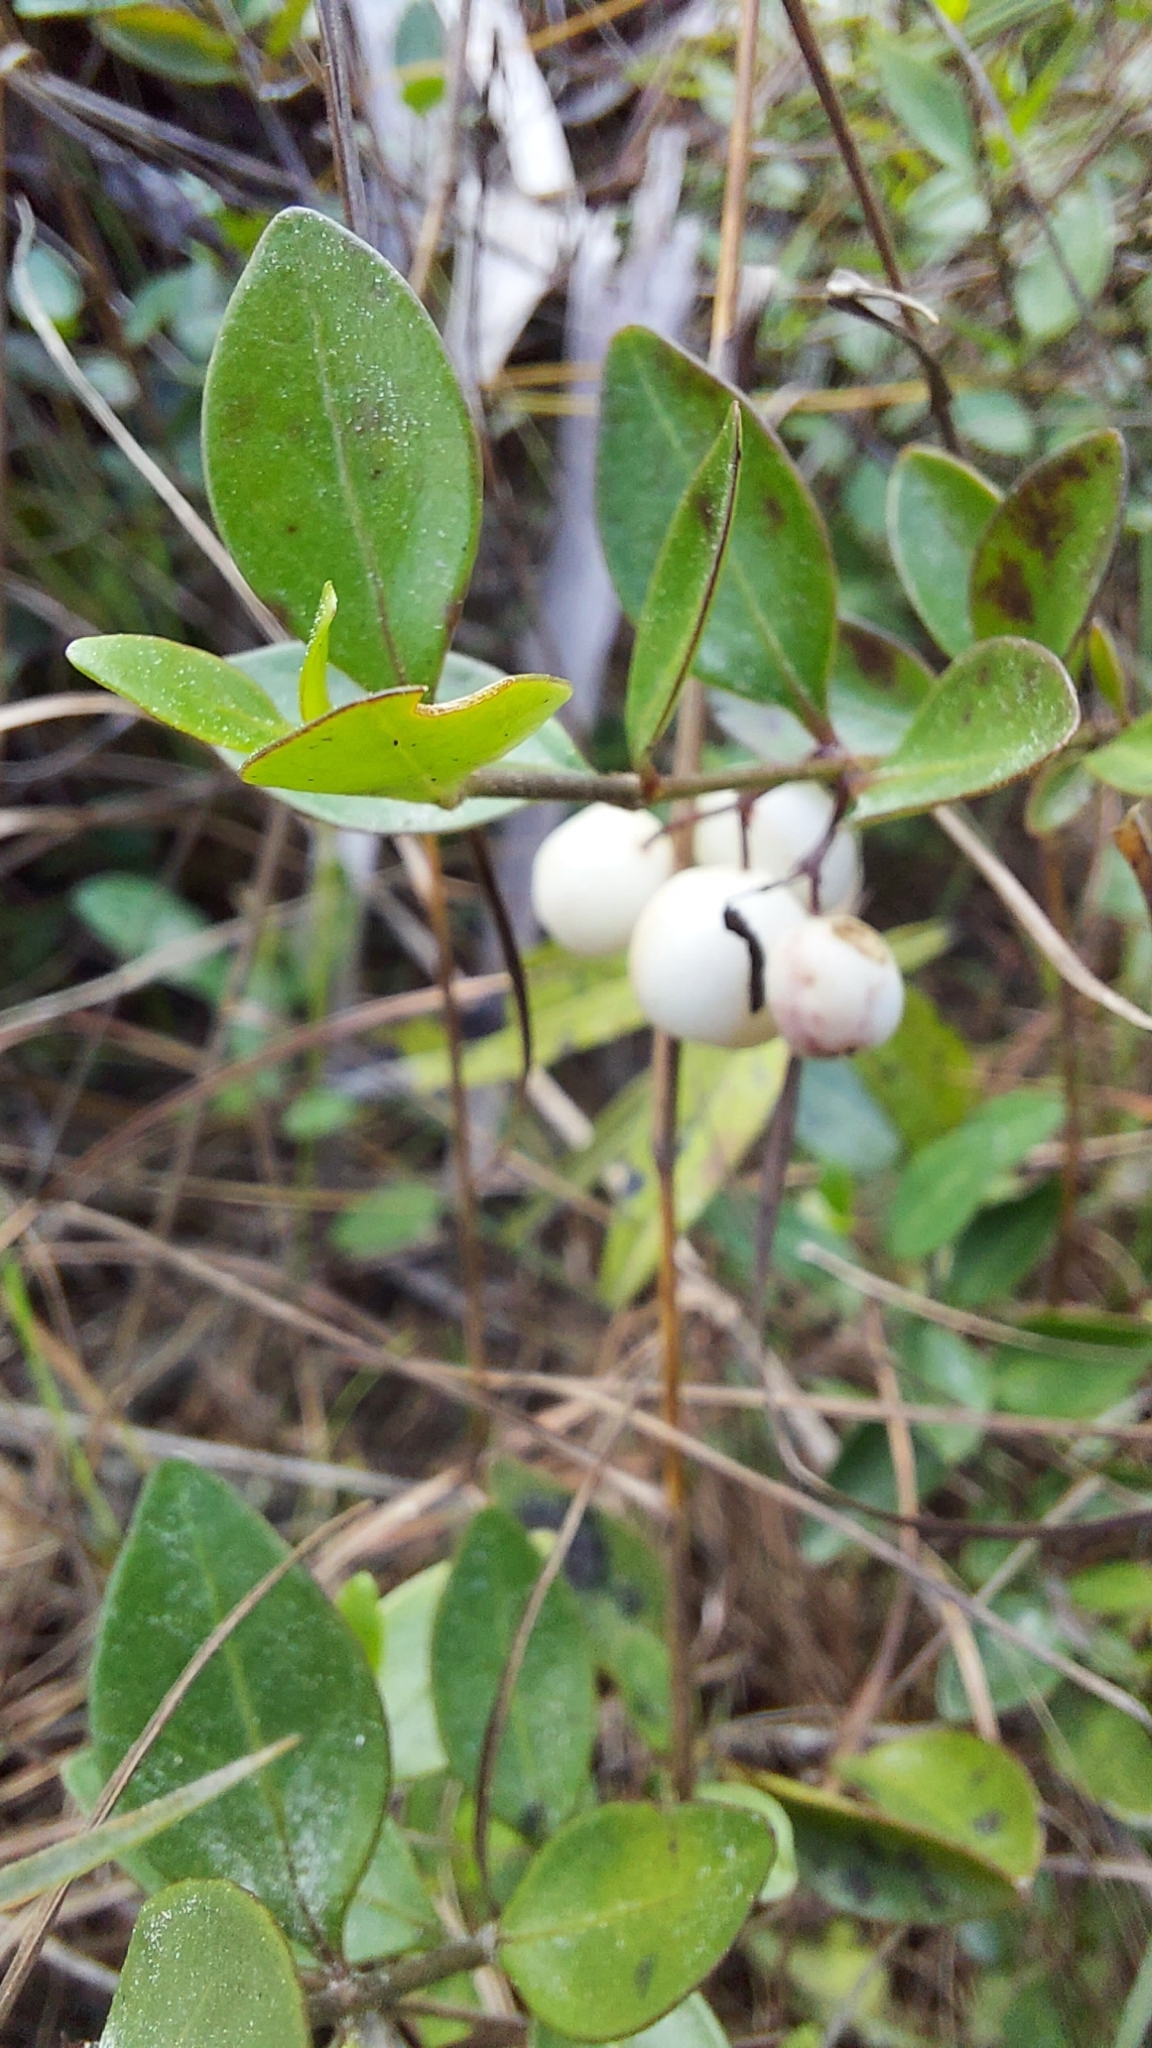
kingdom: Plantae
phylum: Tracheophyta
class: Magnoliopsida
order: Gentianales
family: Rubiaceae
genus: Chiococca
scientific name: Chiococca alba
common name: Snowberry
